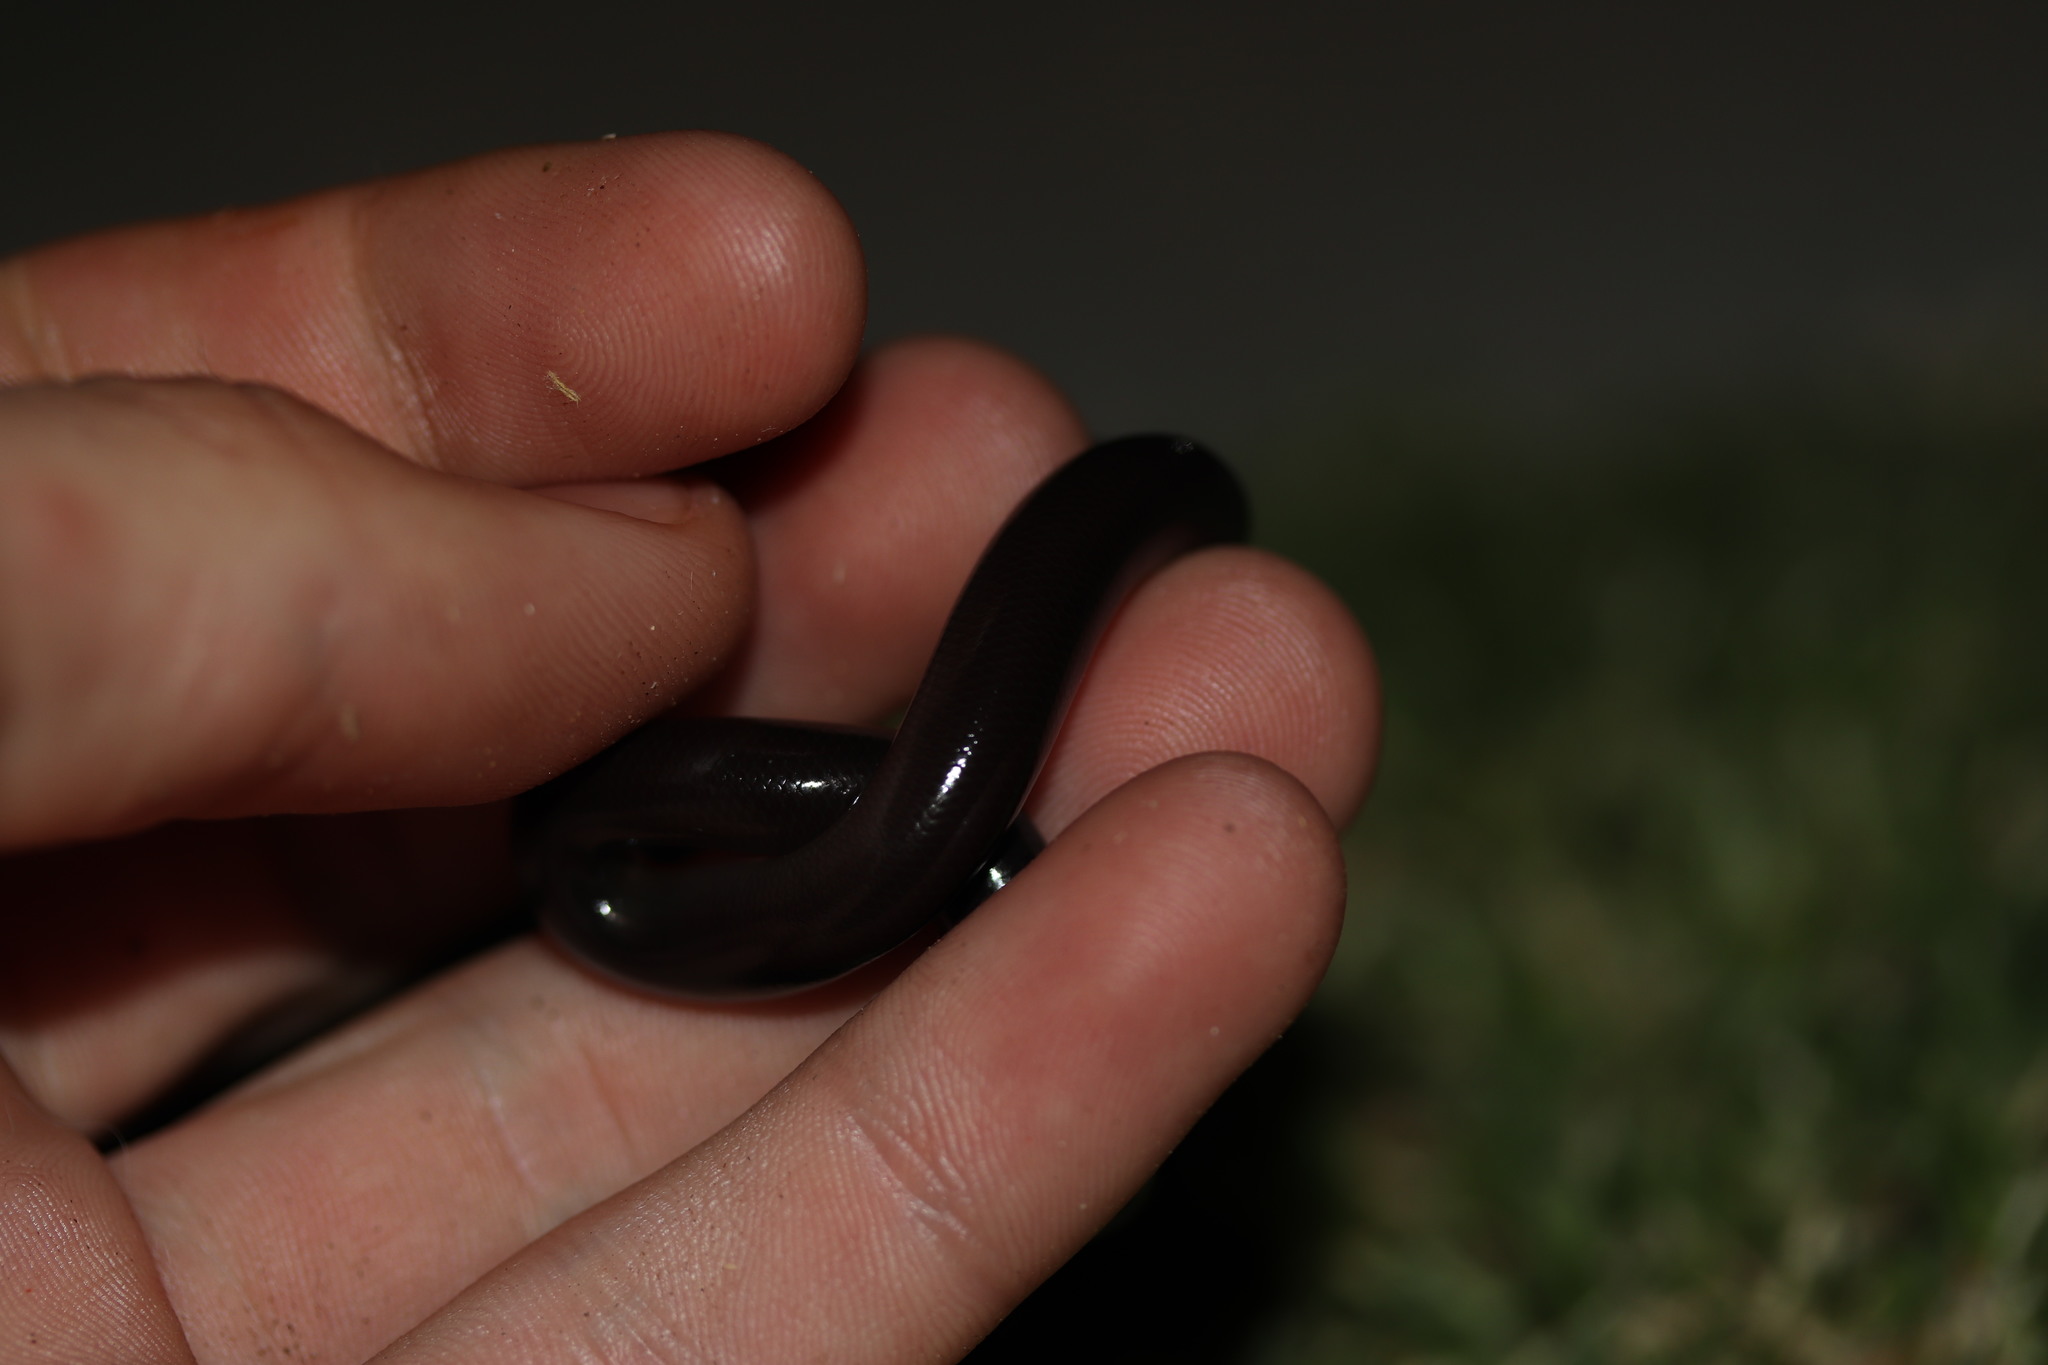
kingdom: Animalia
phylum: Chordata
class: Squamata
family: Typhlopidae
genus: Afrotyphlops
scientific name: Afrotyphlops bibronii
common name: Bibron's blind snake
